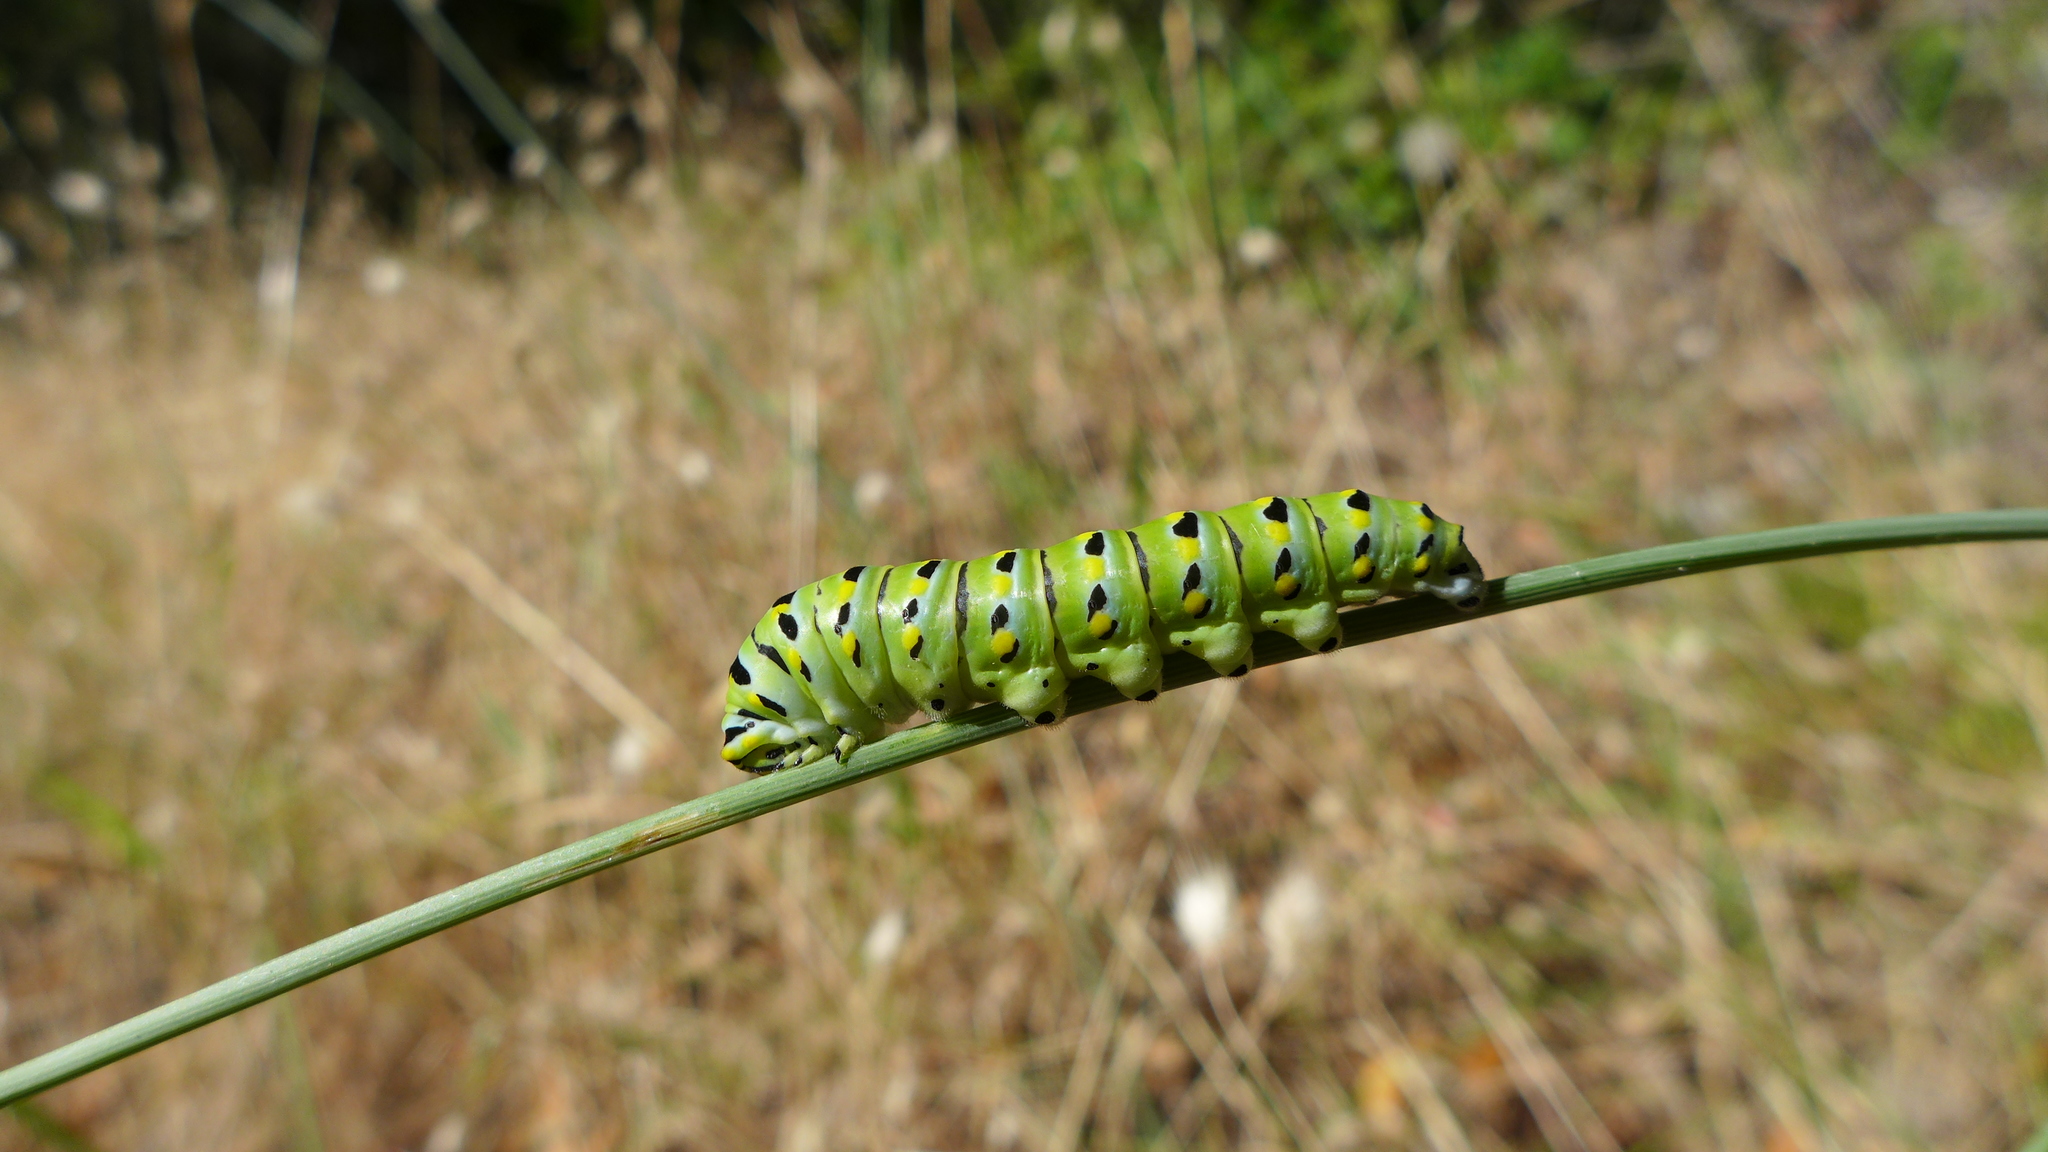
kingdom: Animalia
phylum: Arthropoda
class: Insecta
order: Lepidoptera
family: Papilionidae
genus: Papilio
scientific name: Papilio zelicaon
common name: Anise swallowtail
